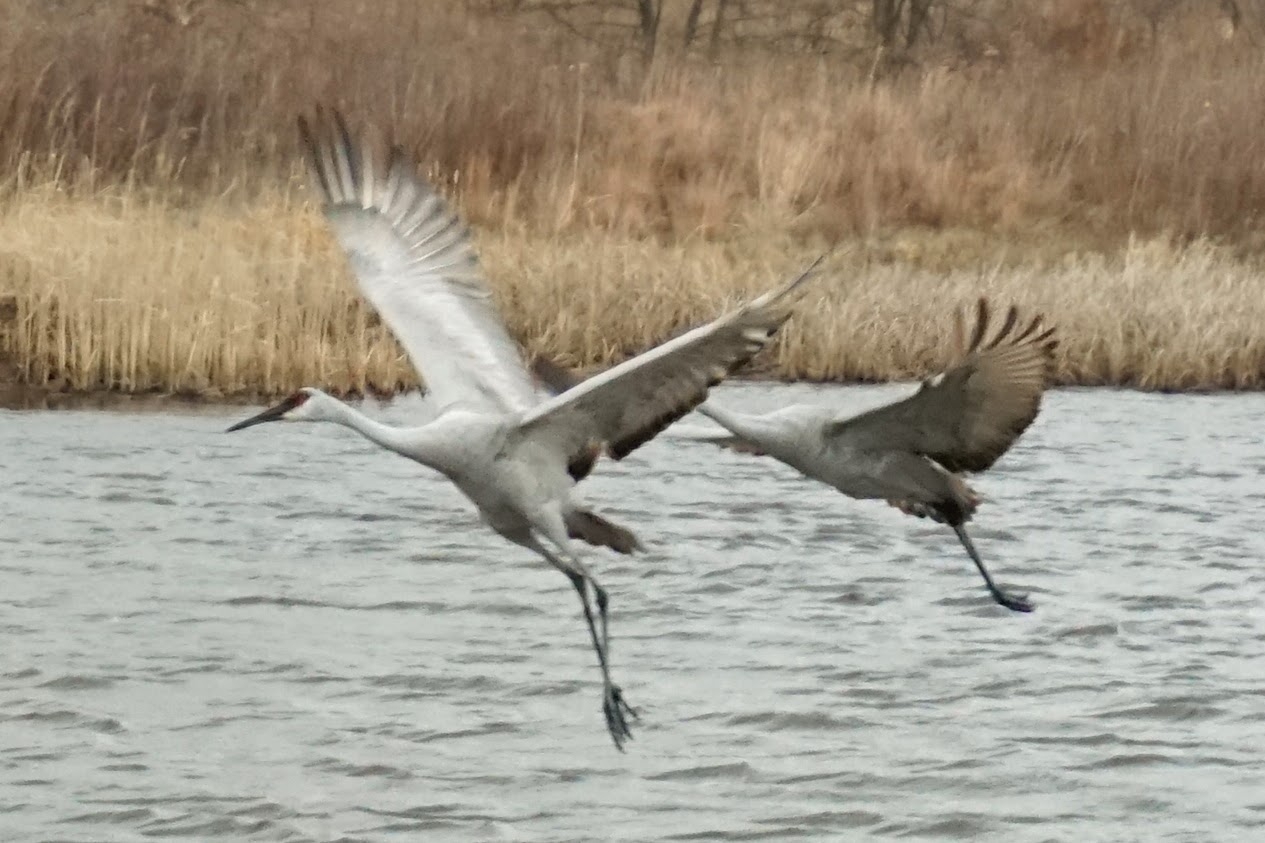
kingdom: Animalia
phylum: Chordata
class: Aves
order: Gruiformes
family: Gruidae
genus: Grus
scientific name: Grus canadensis
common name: Sandhill crane
